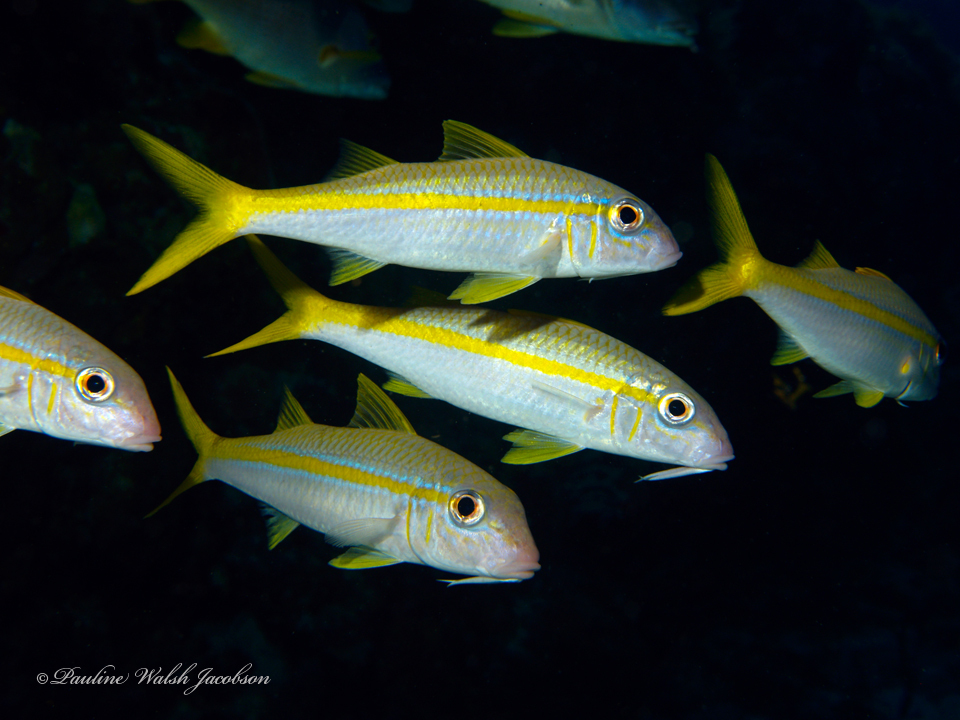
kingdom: Animalia
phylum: Chordata
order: Perciformes
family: Mullidae
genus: Mulloidichthys
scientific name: Mulloidichthys martinicus
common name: Yellow goatfish
